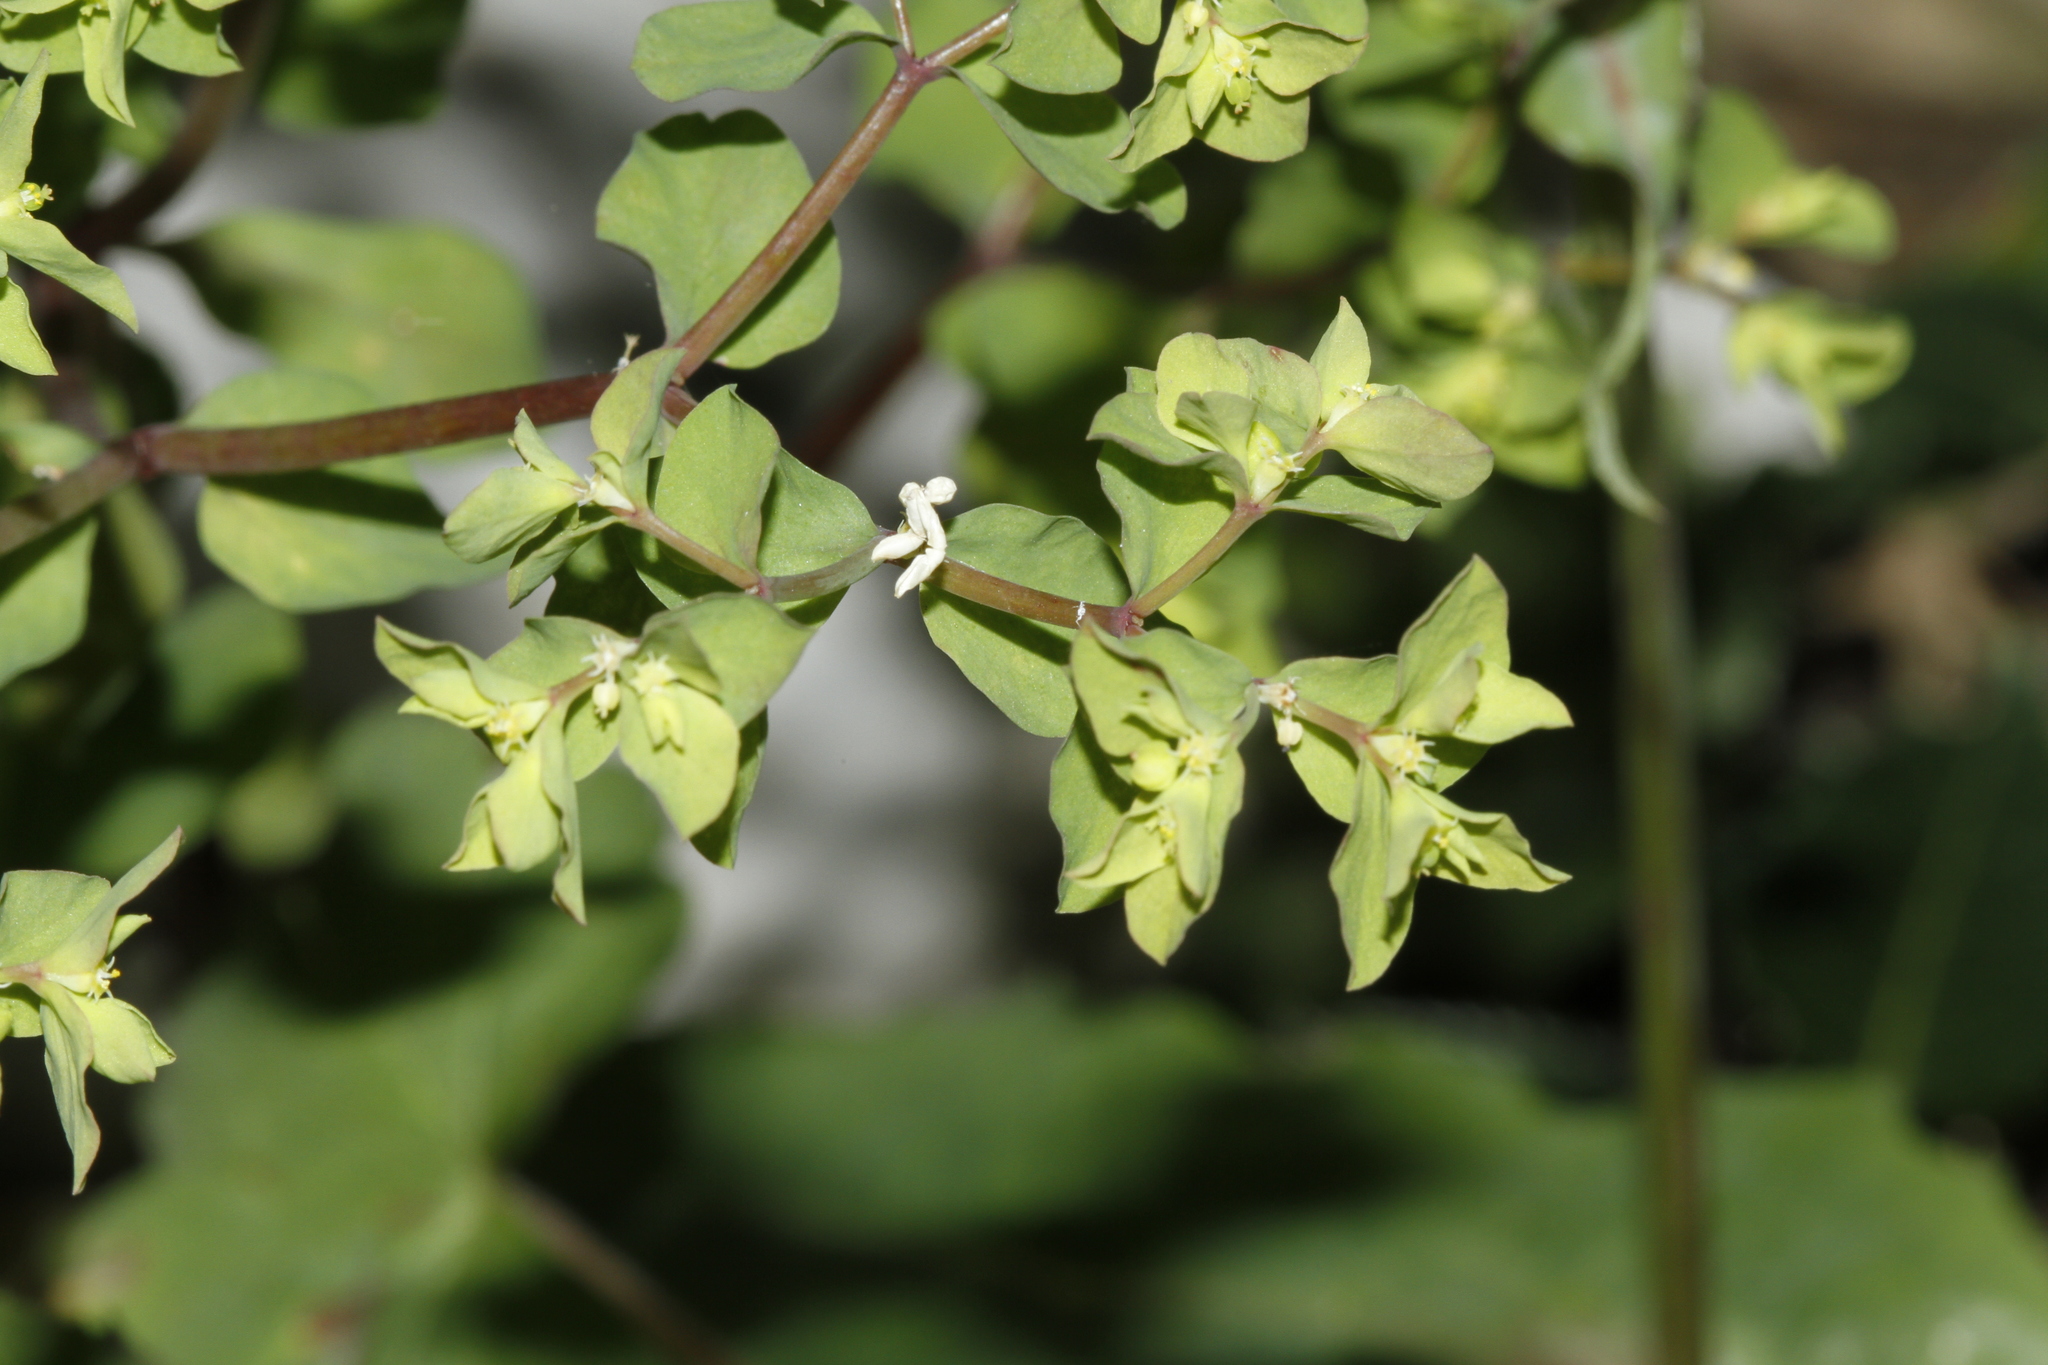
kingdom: Plantae
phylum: Tracheophyta
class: Magnoliopsida
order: Malpighiales
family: Euphorbiaceae
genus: Euphorbia
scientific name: Euphorbia peplus
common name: Petty spurge
